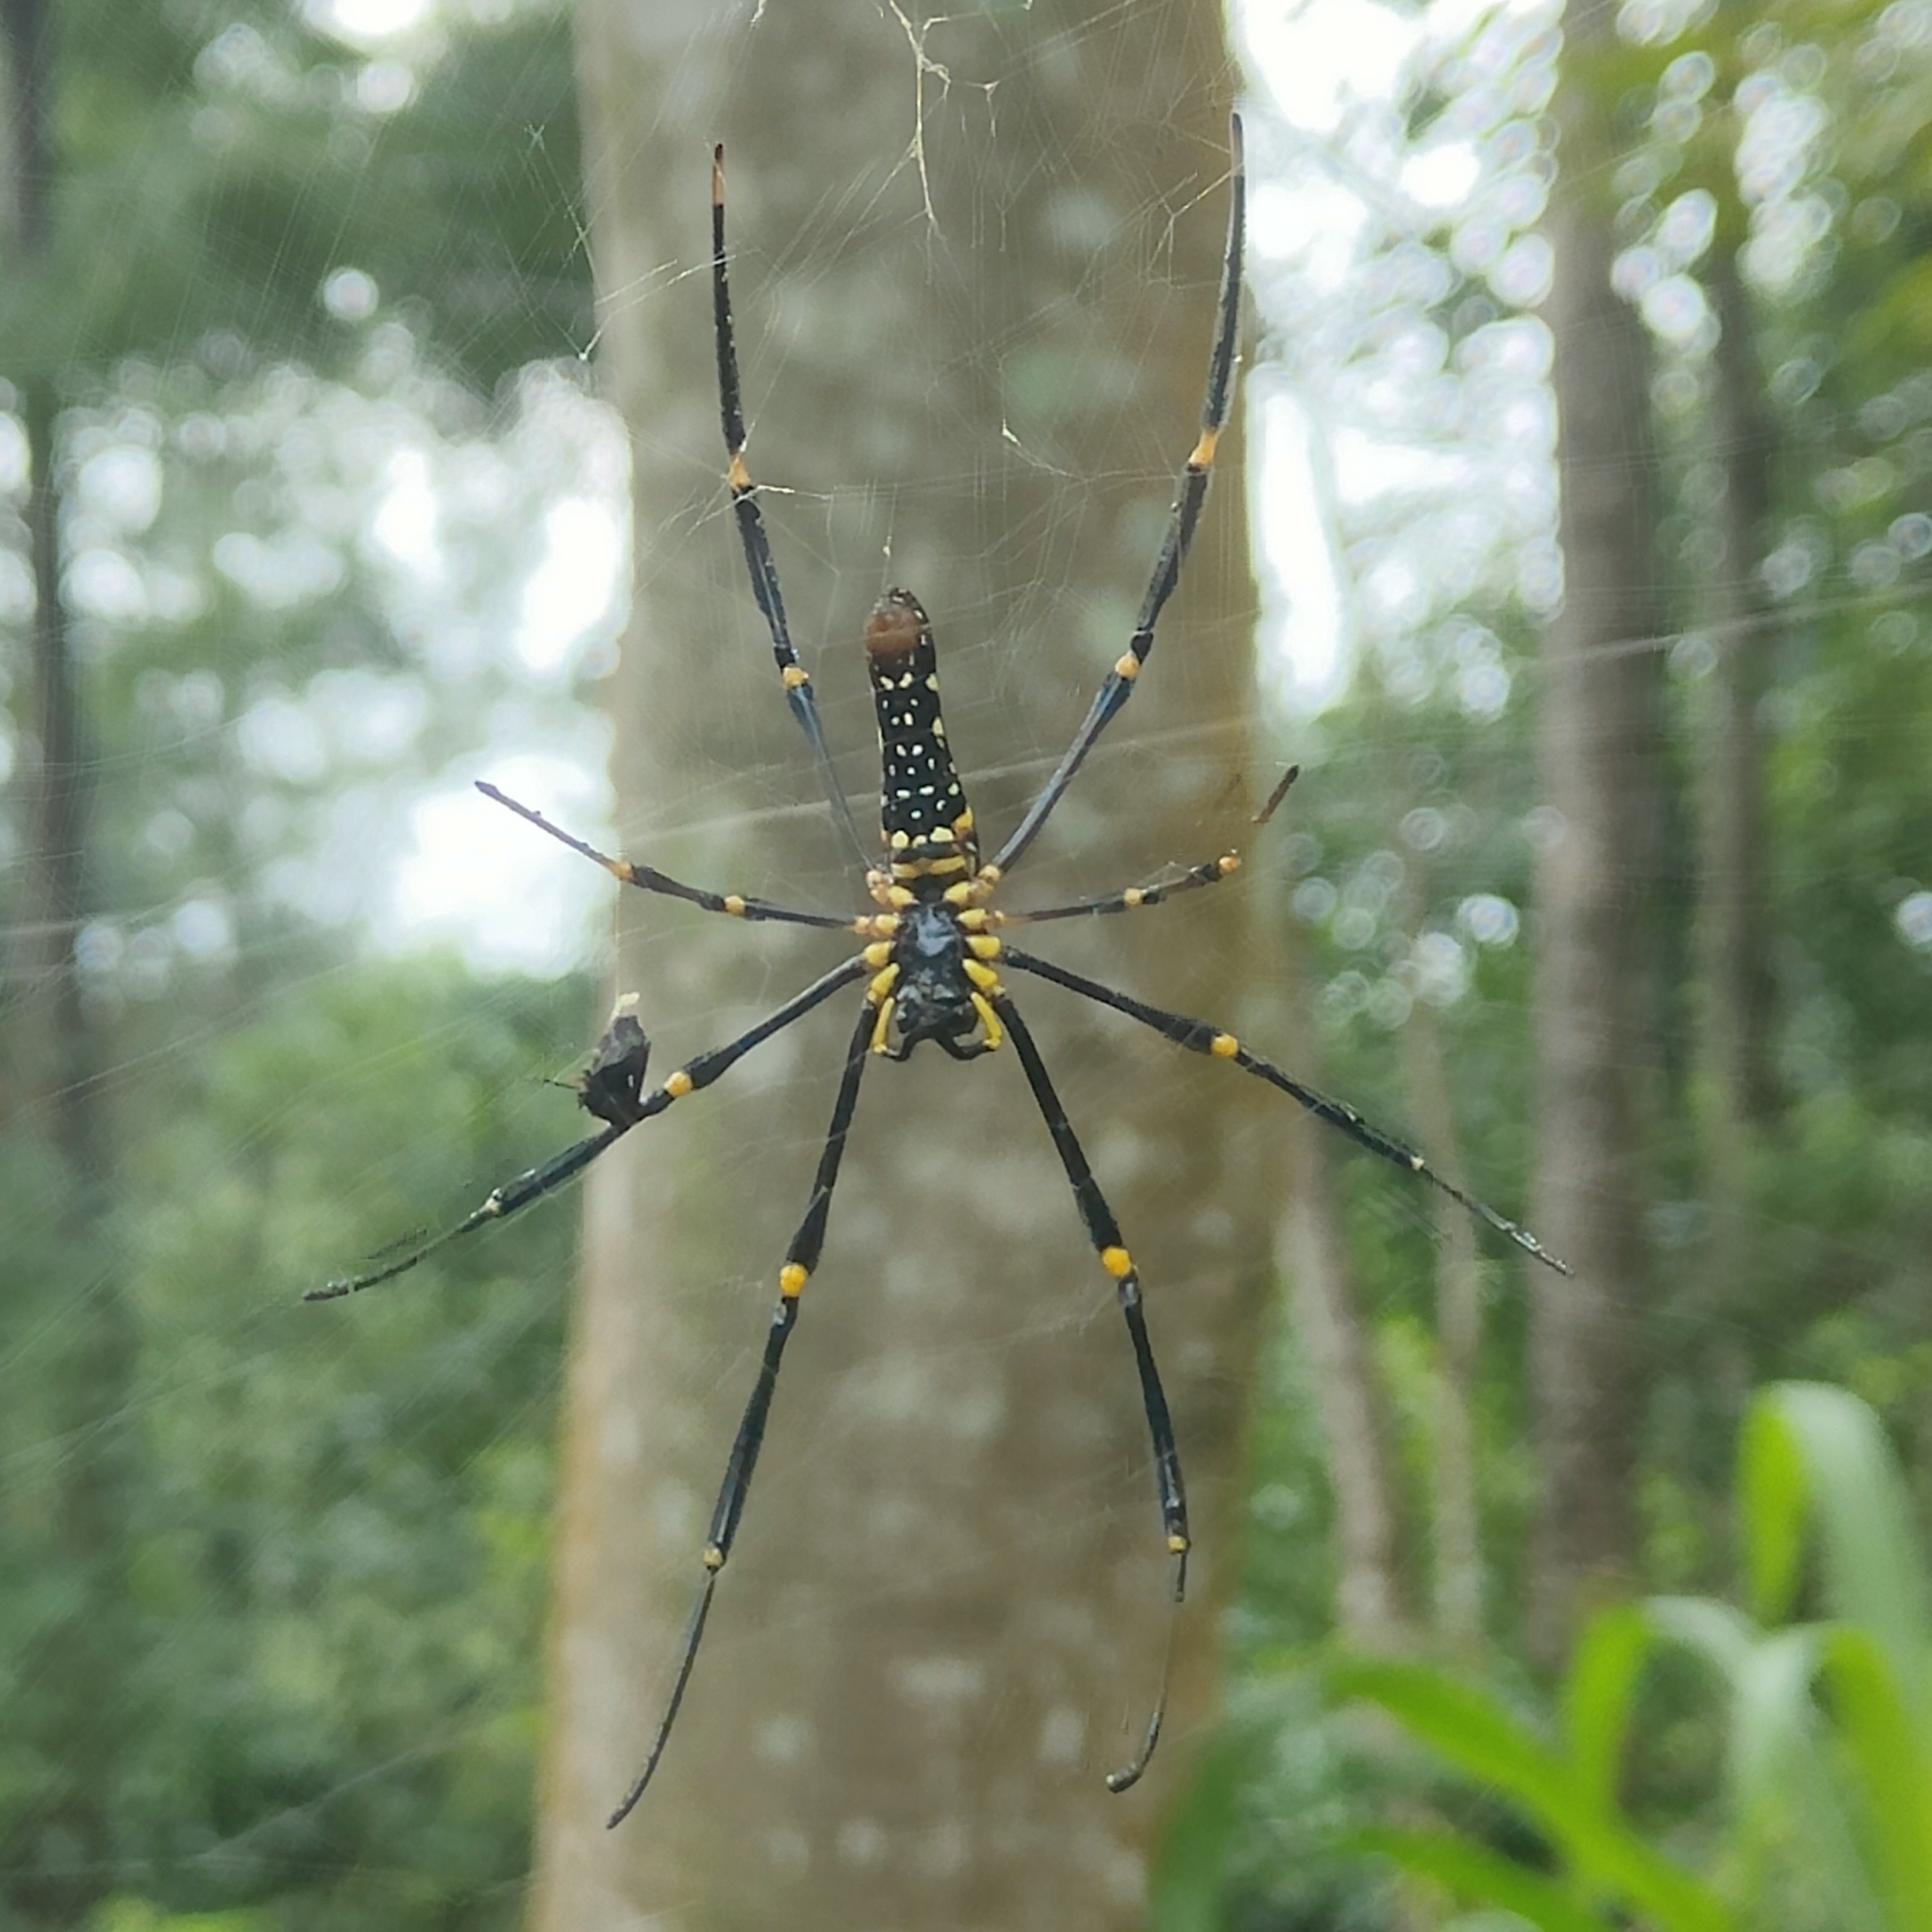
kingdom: Animalia
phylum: Arthropoda
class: Arachnida
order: Araneae
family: Araneidae
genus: Nephila
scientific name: Nephila pilipes
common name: Giant golden orb weaver
